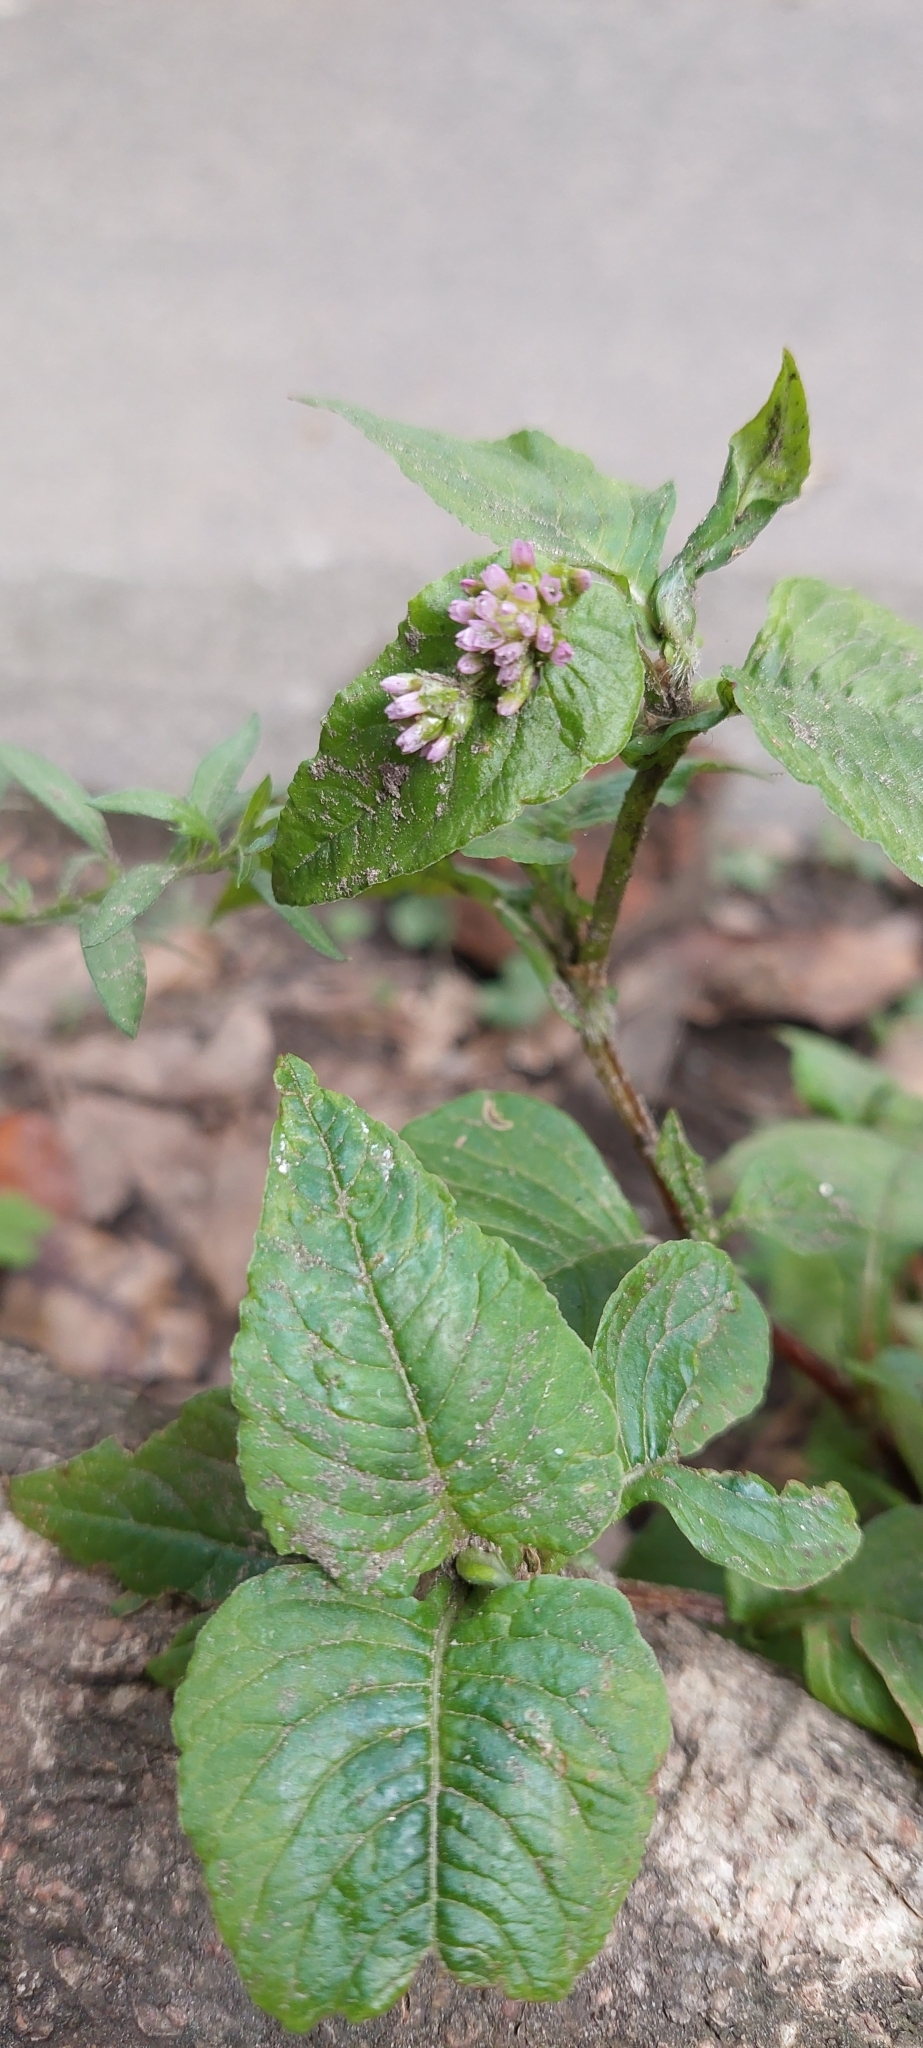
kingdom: Plantae
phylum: Tracheophyta
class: Magnoliopsida
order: Caryophyllales
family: Polygonaceae
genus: Persicaria
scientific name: Persicaria nepalensis
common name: Nepal persicaria
